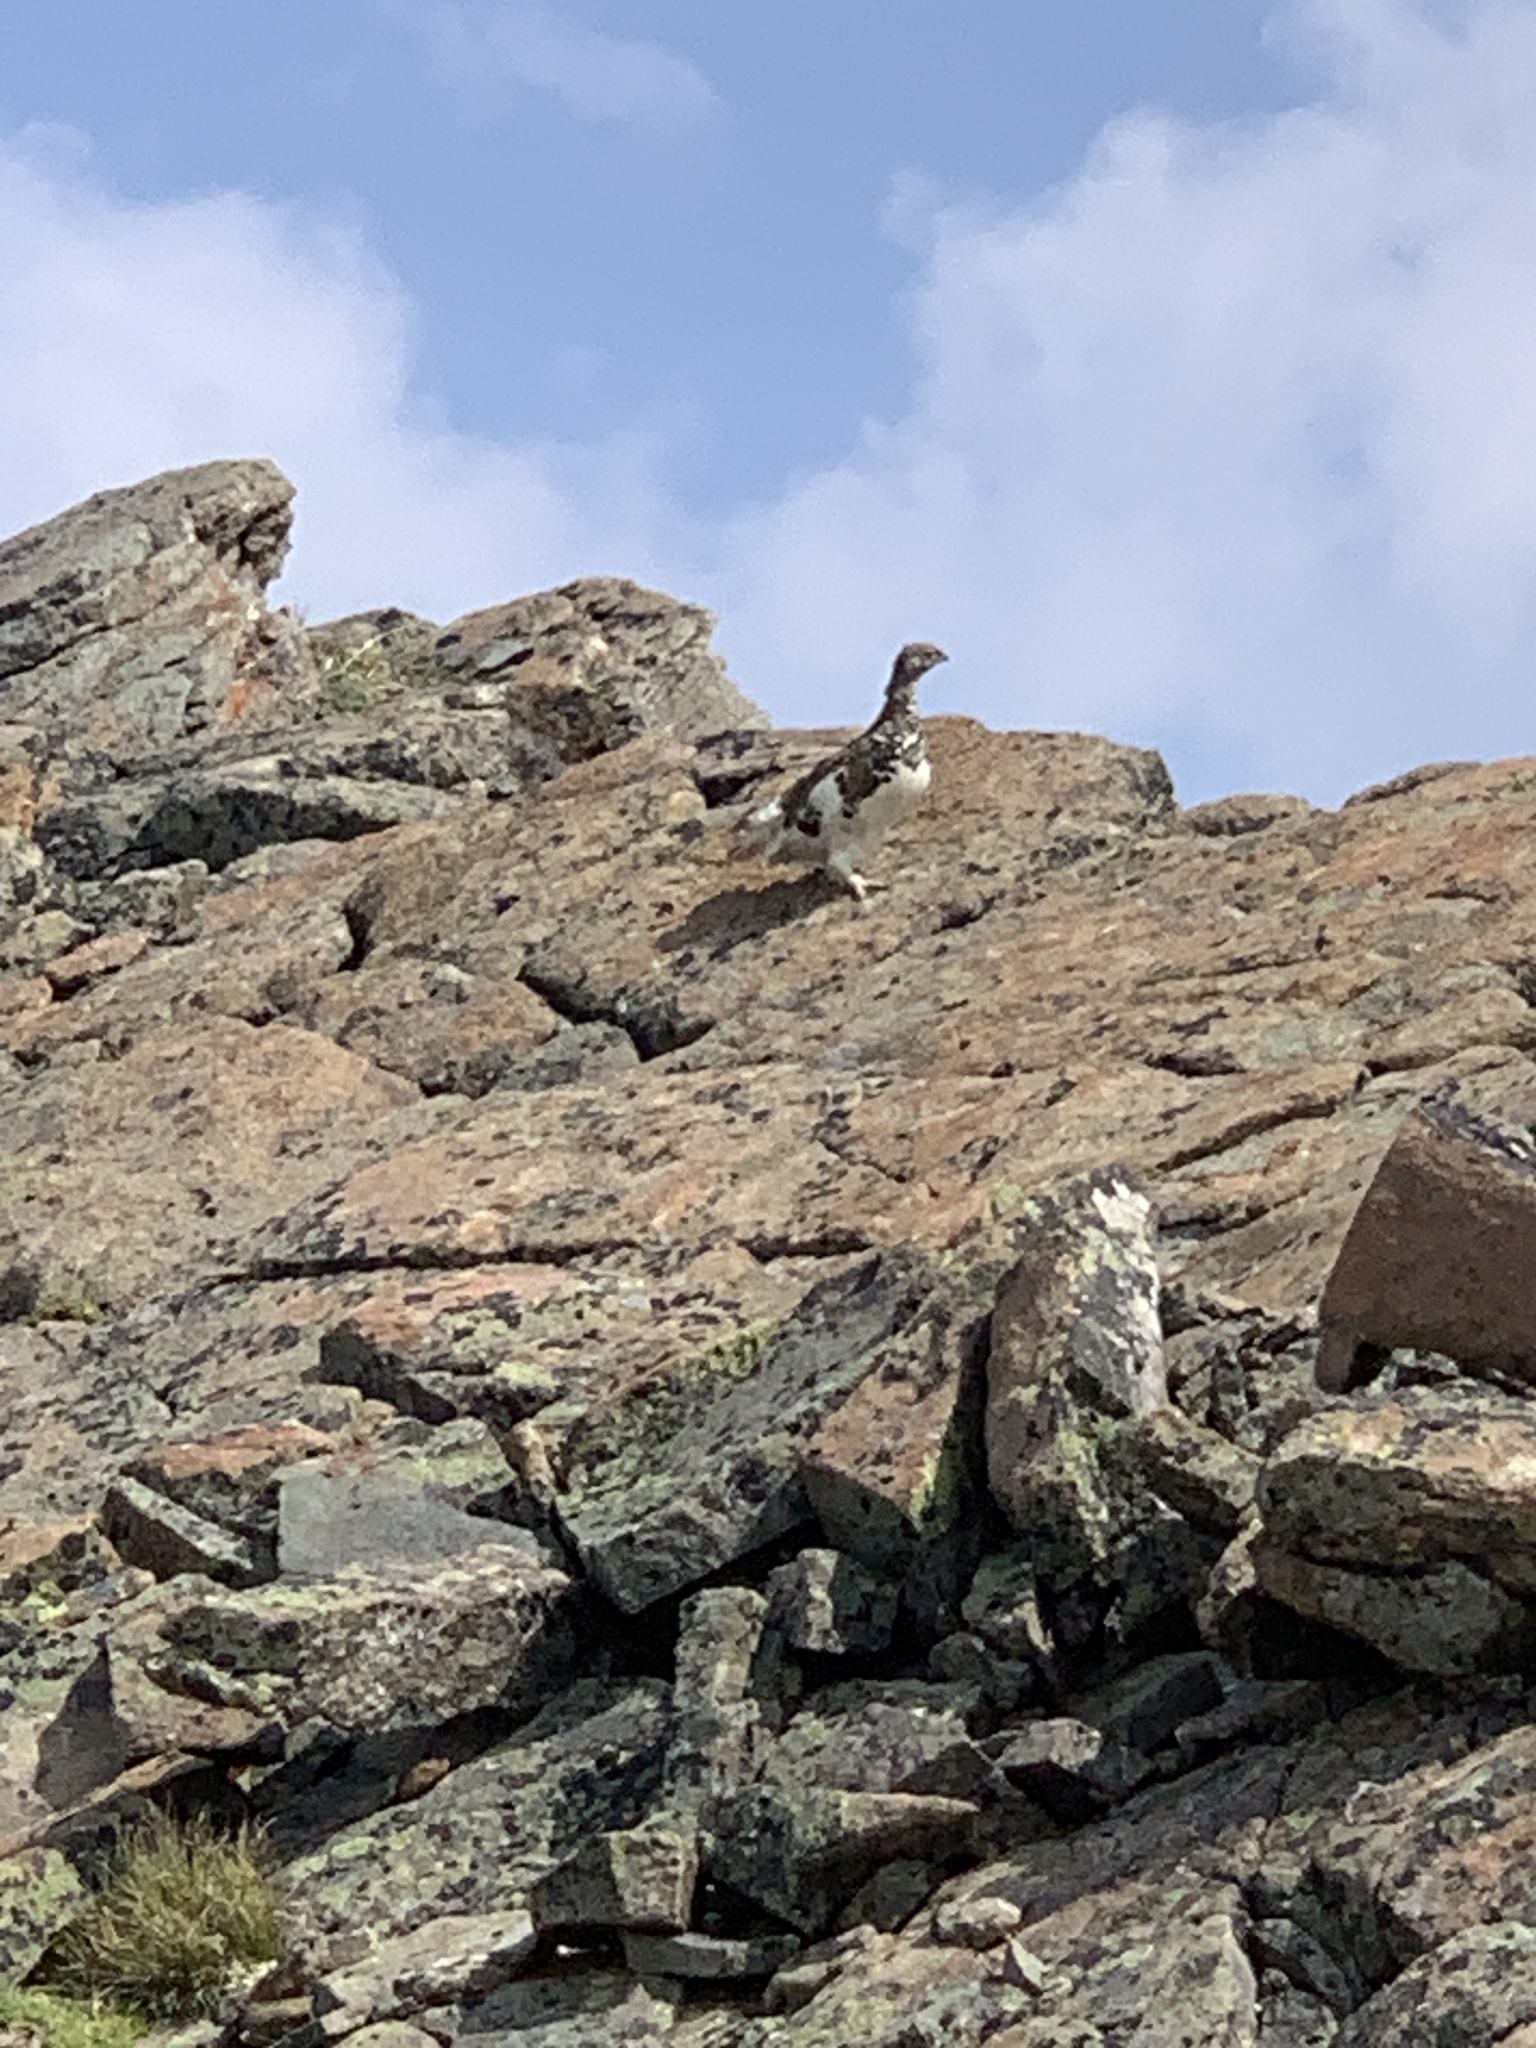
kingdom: Animalia
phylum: Chordata
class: Aves
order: Galliformes
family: Phasianidae
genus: Lagopus
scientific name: Lagopus leucura
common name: White-tailed ptarmigan
